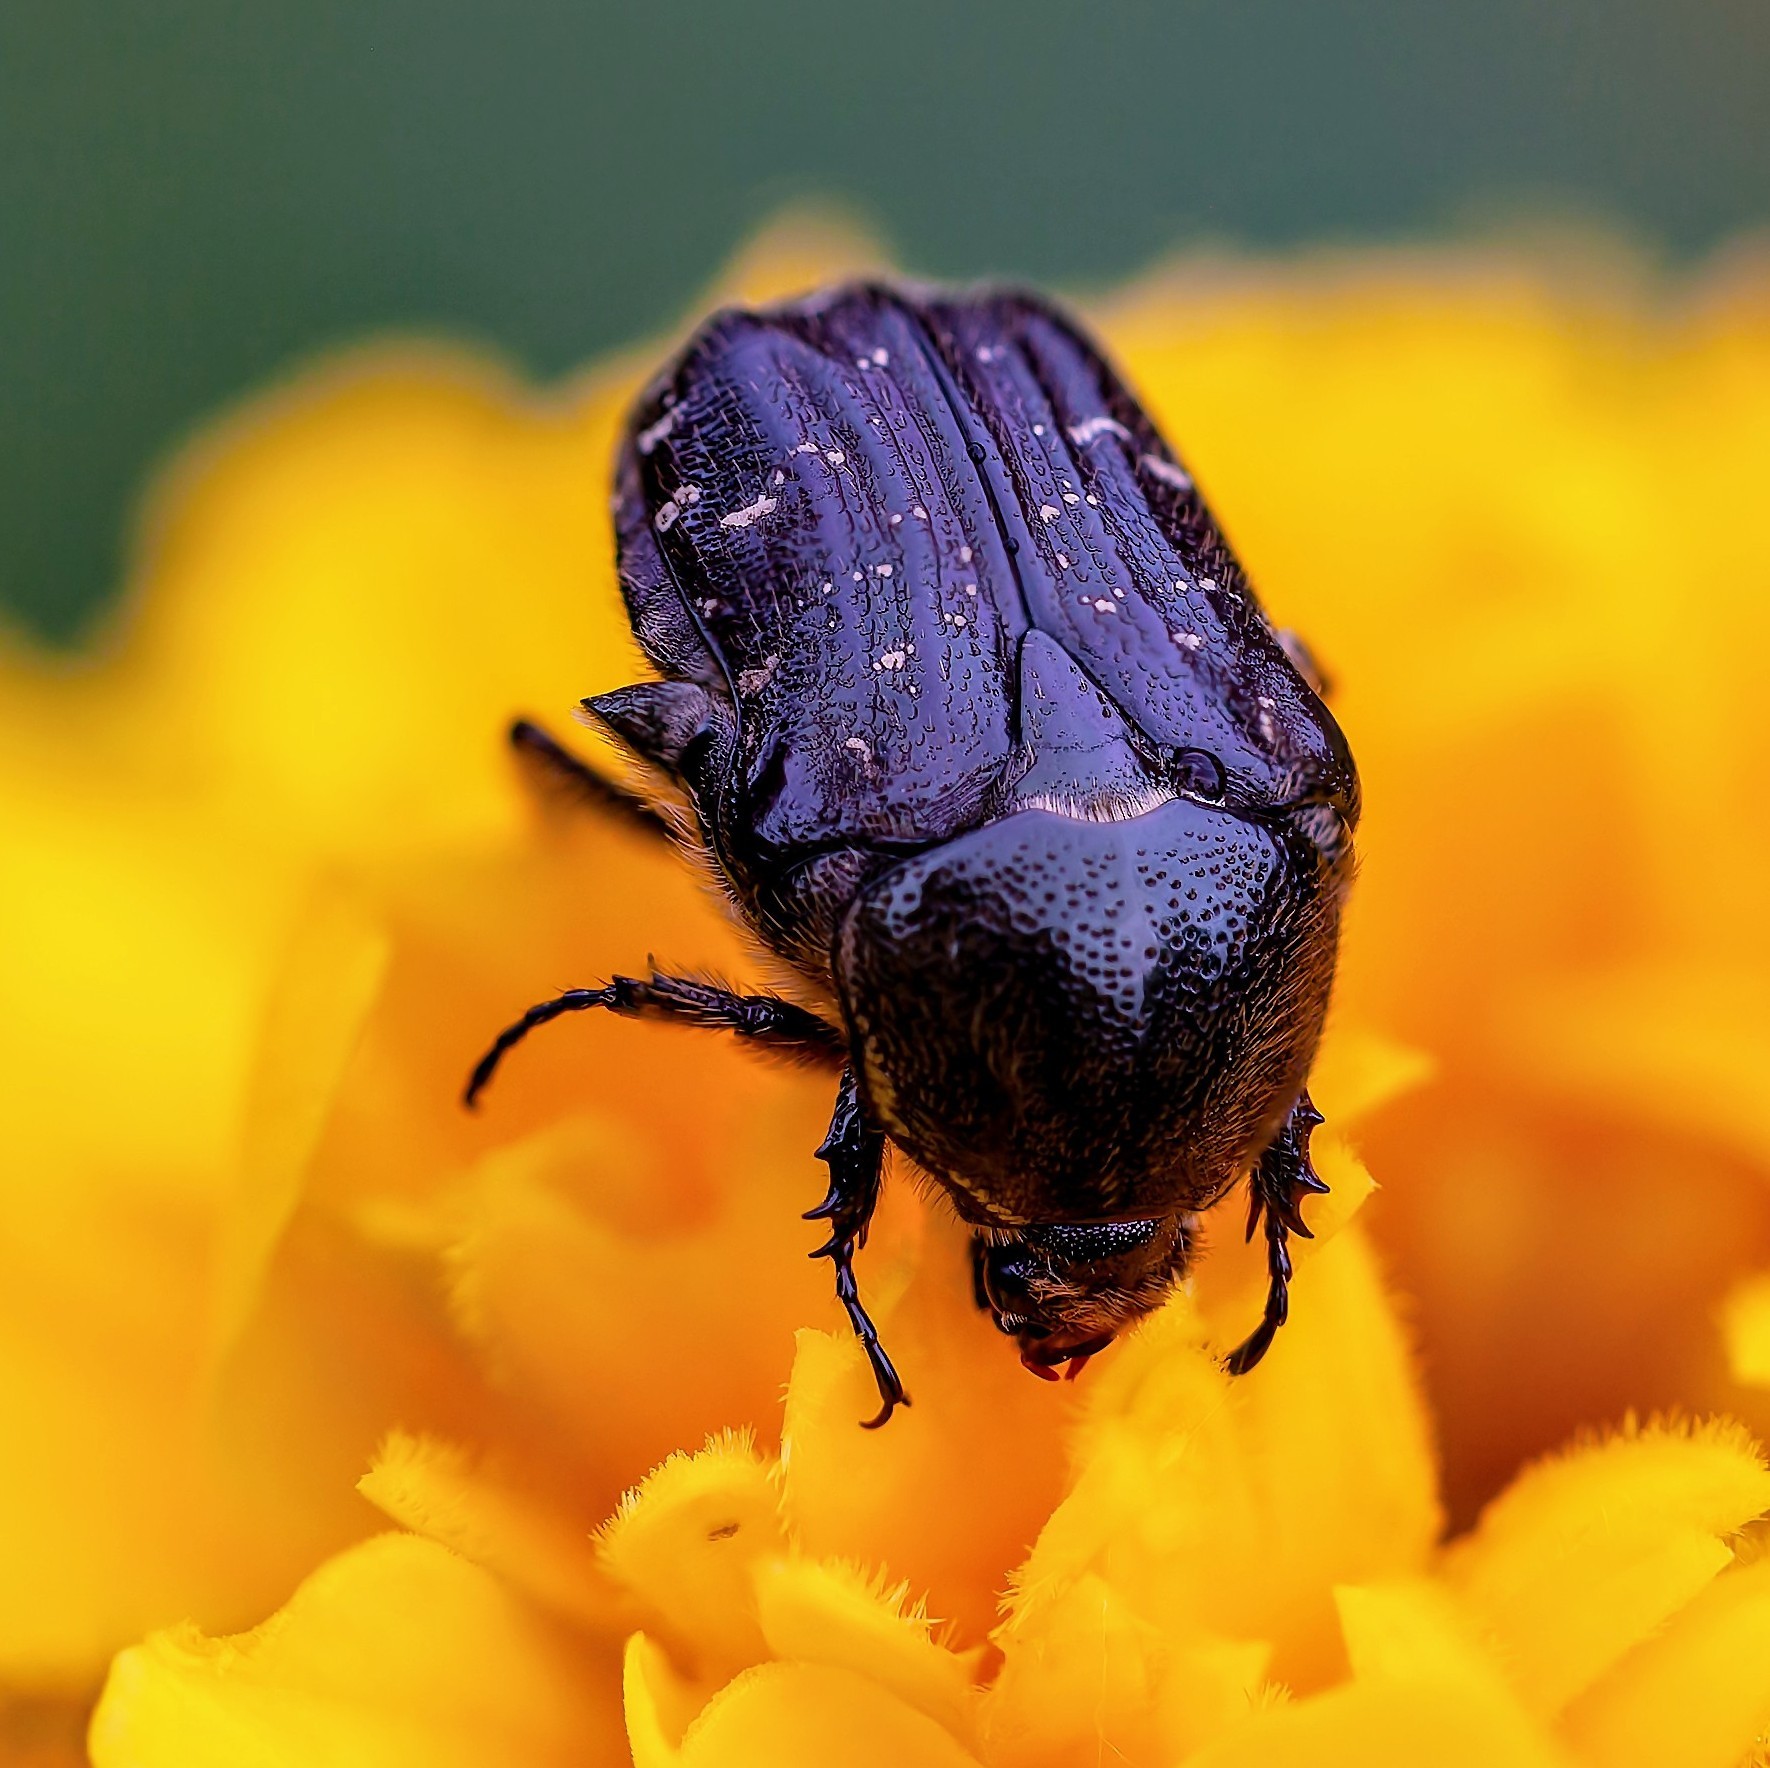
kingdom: Animalia
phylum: Arthropoda
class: Insecta
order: Coleoptera
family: Scarabaeidae
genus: Euphoria
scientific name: Euphoria sepulcralis
